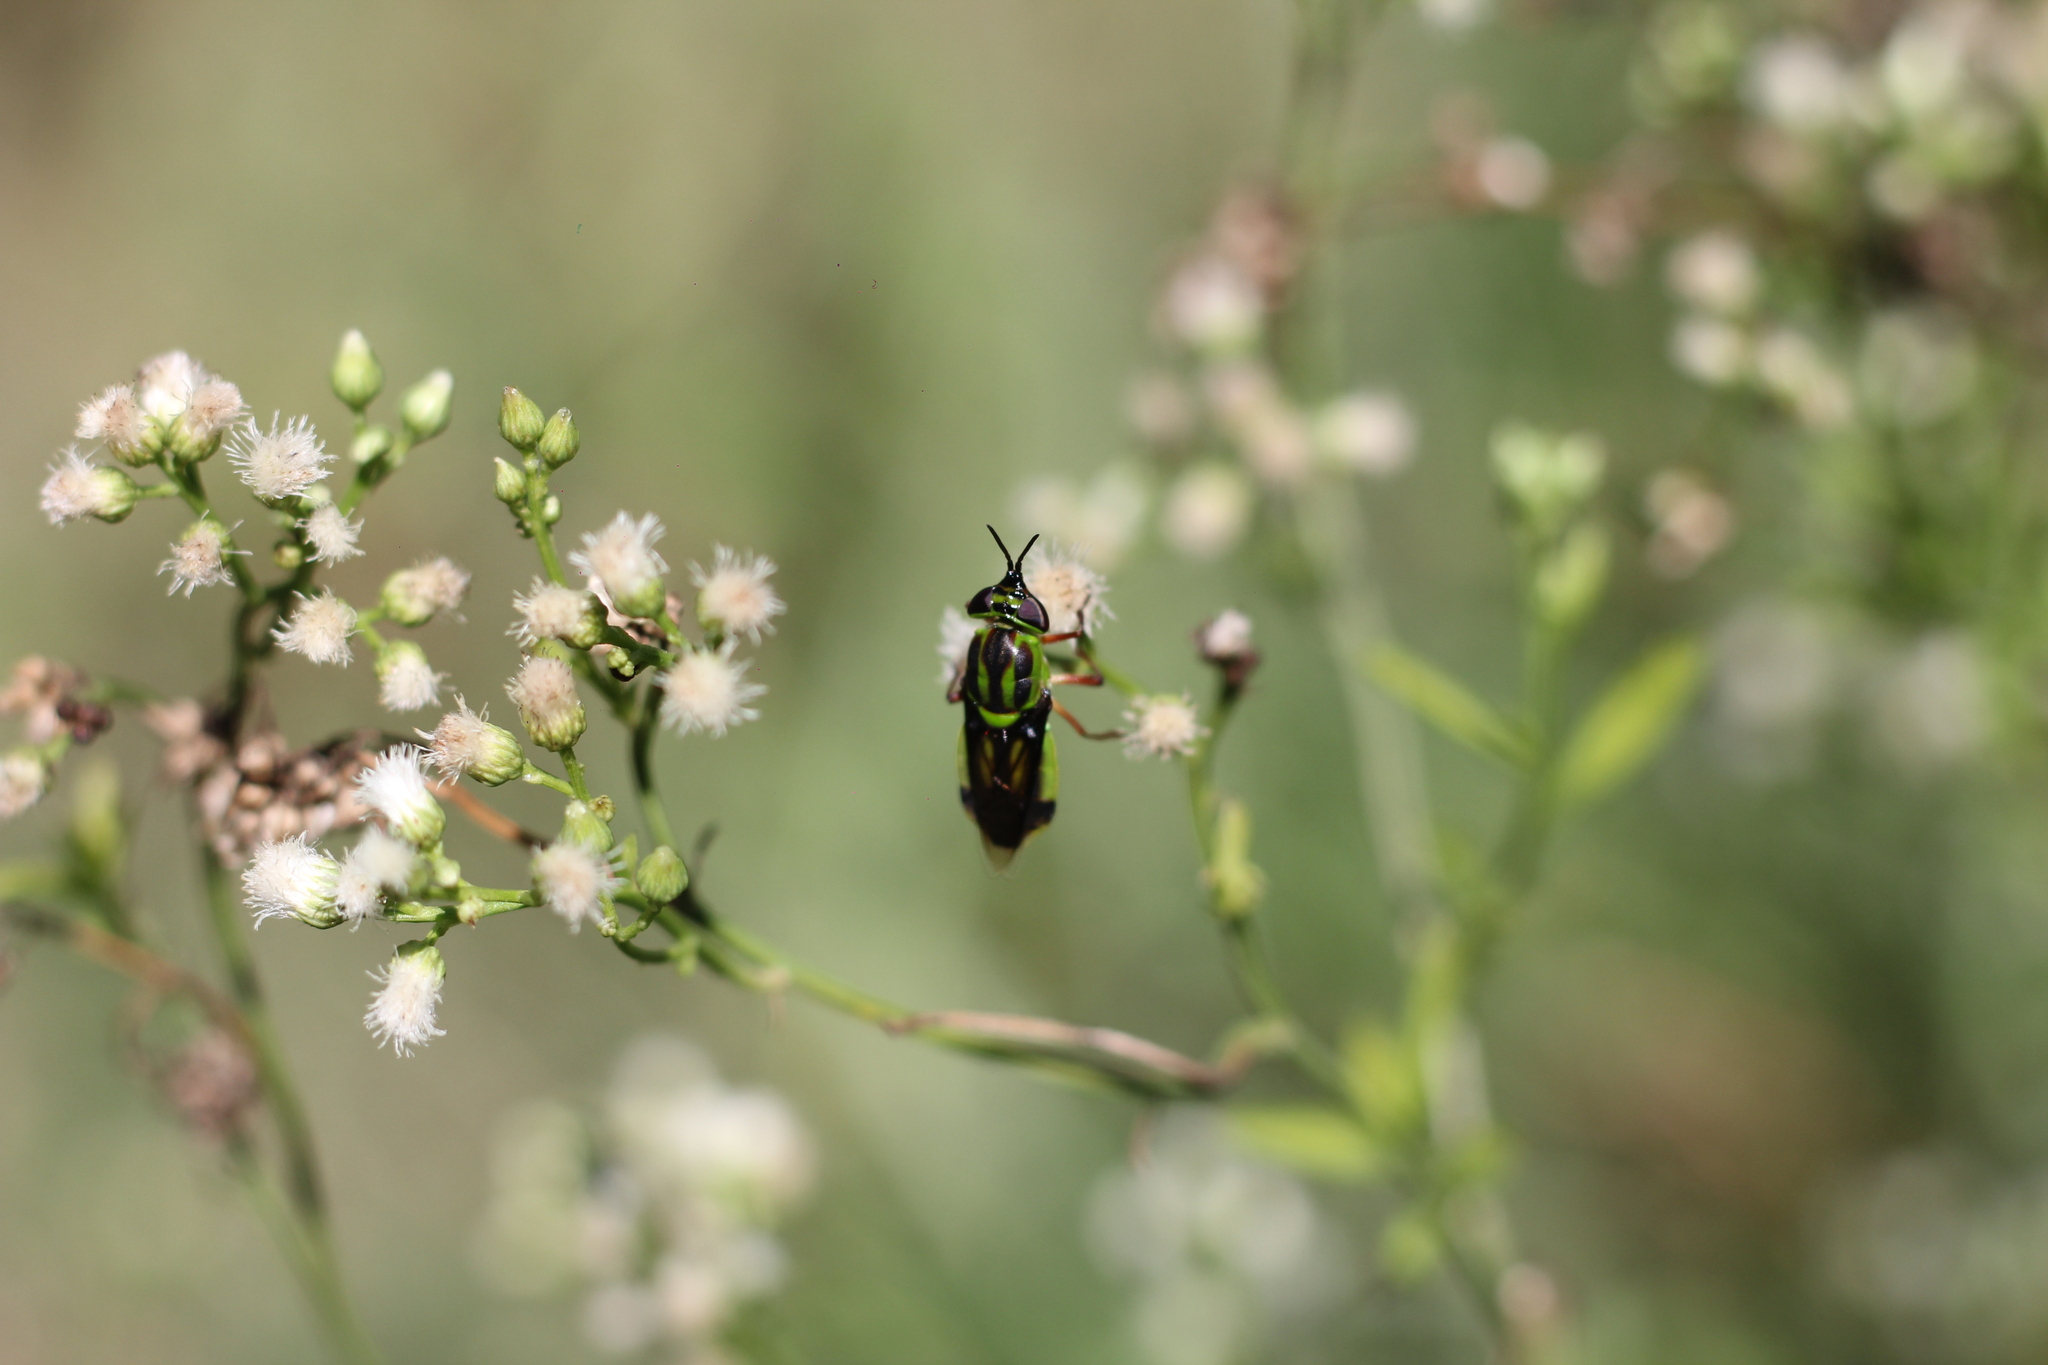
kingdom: Animalia
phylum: Arthropoda
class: Insecta
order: Diptera
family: Stratiomyidae
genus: Hedriodiscus
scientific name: Hedriodiscus pulcher
